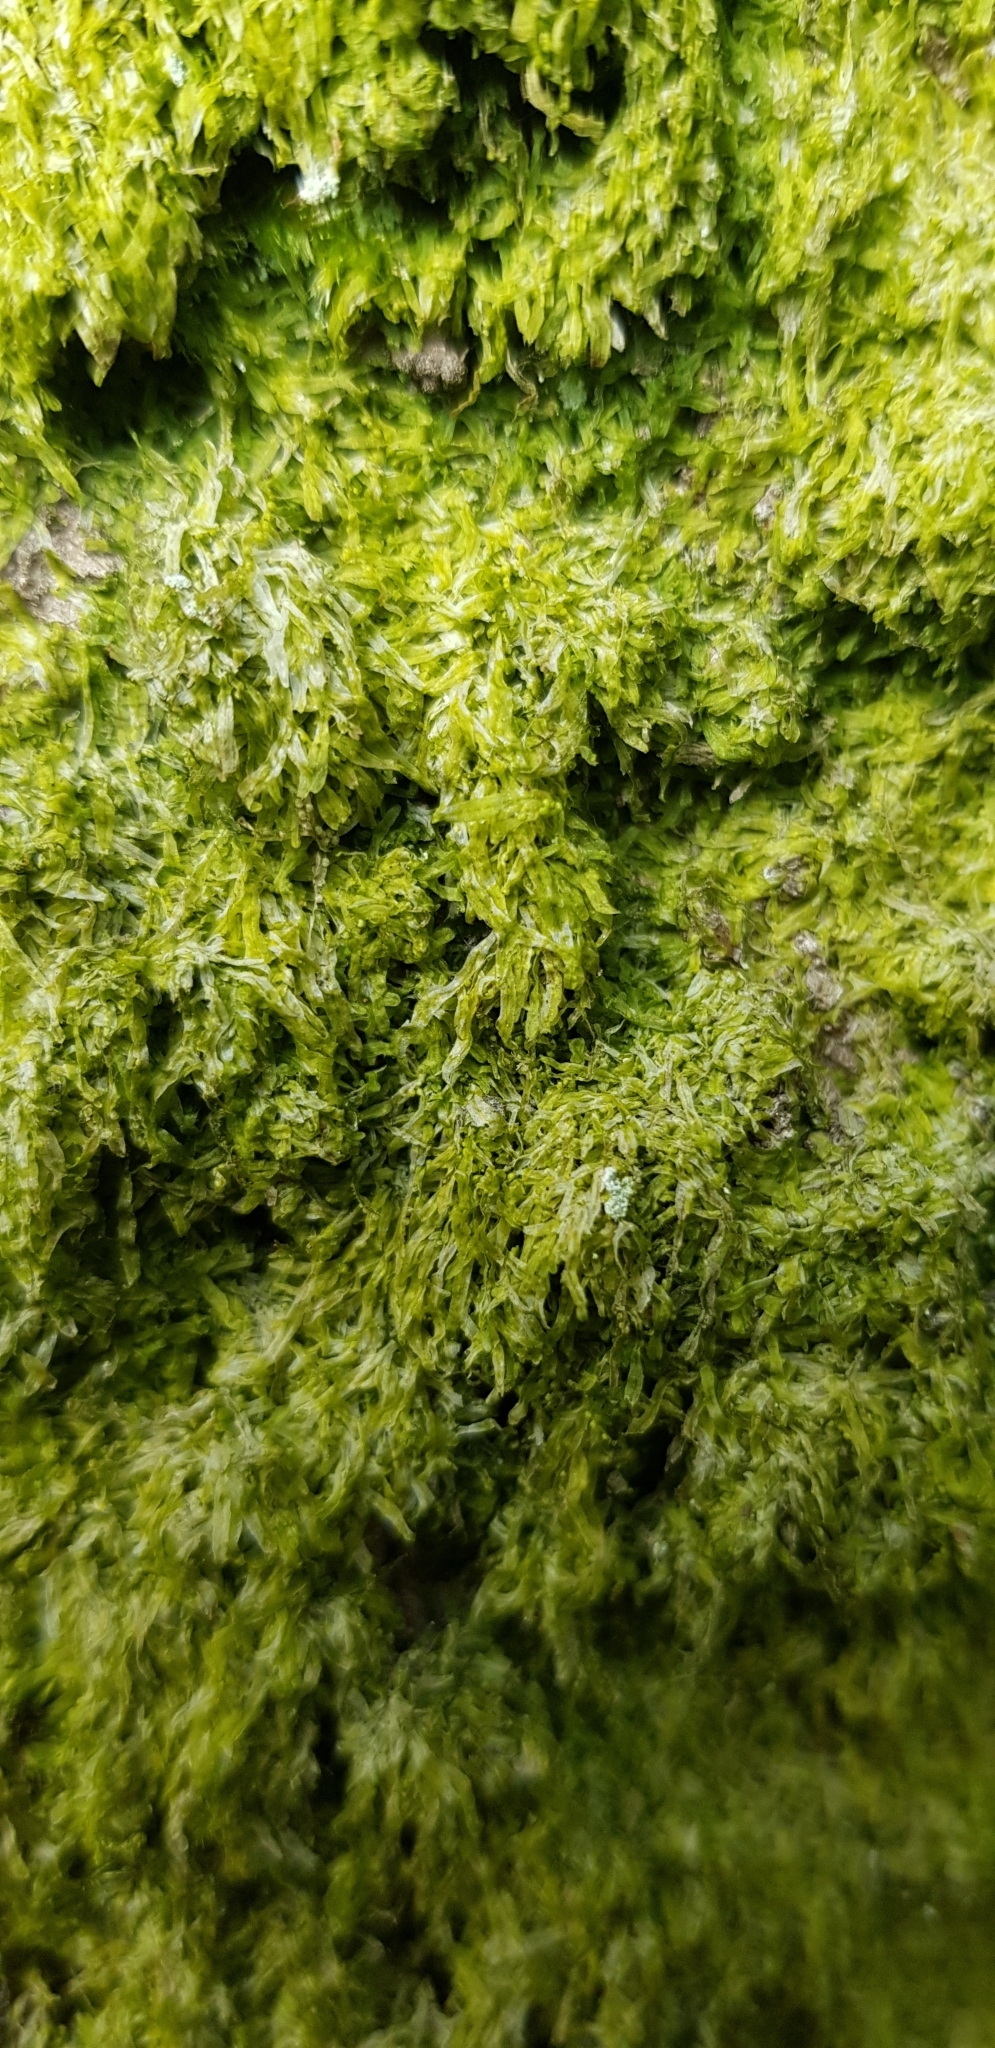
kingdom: Plantae
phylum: Marchantiophyta
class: Jungermanniopsida
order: Metzgeriales
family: Metzgeriaceae
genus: Metzgeria
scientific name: Metzgeria furcata
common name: Forked veilwort
